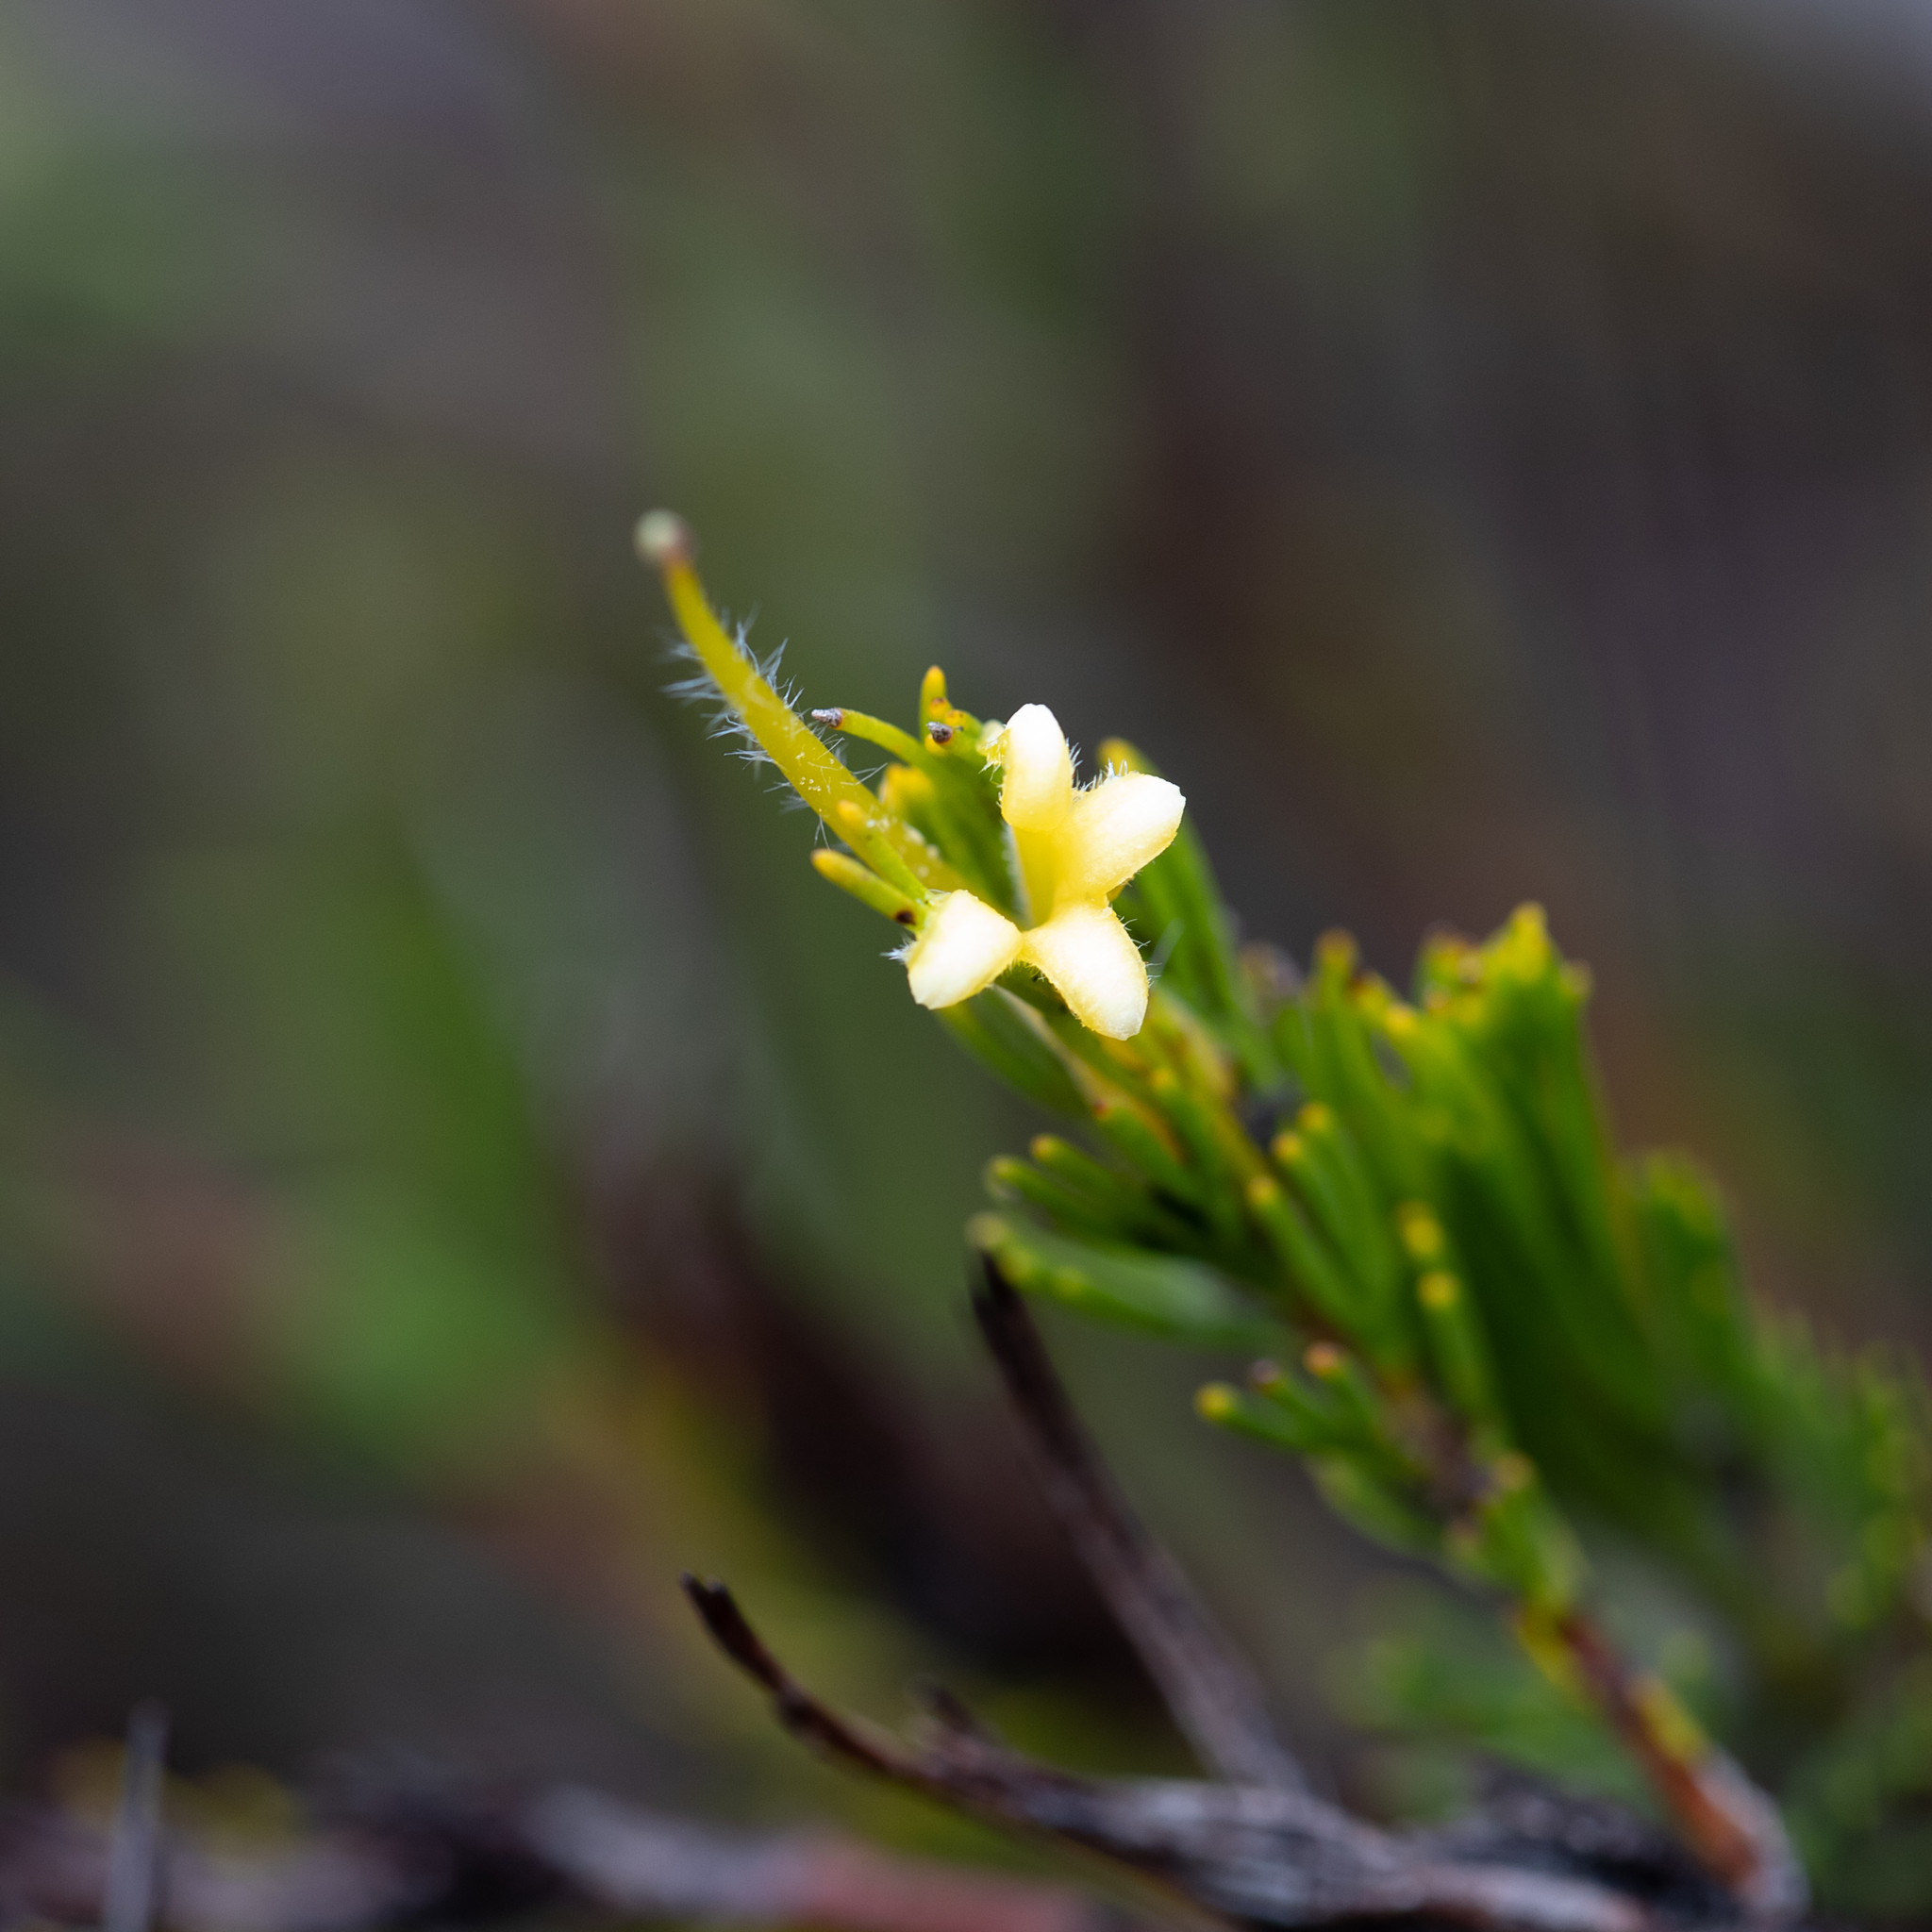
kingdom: Plantae
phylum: Tracheophyta
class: Magnoliopsida
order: Proteales
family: Proteaceae
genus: Adenanthos
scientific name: Adenanthos terminalis
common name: Yellow gland-flower
